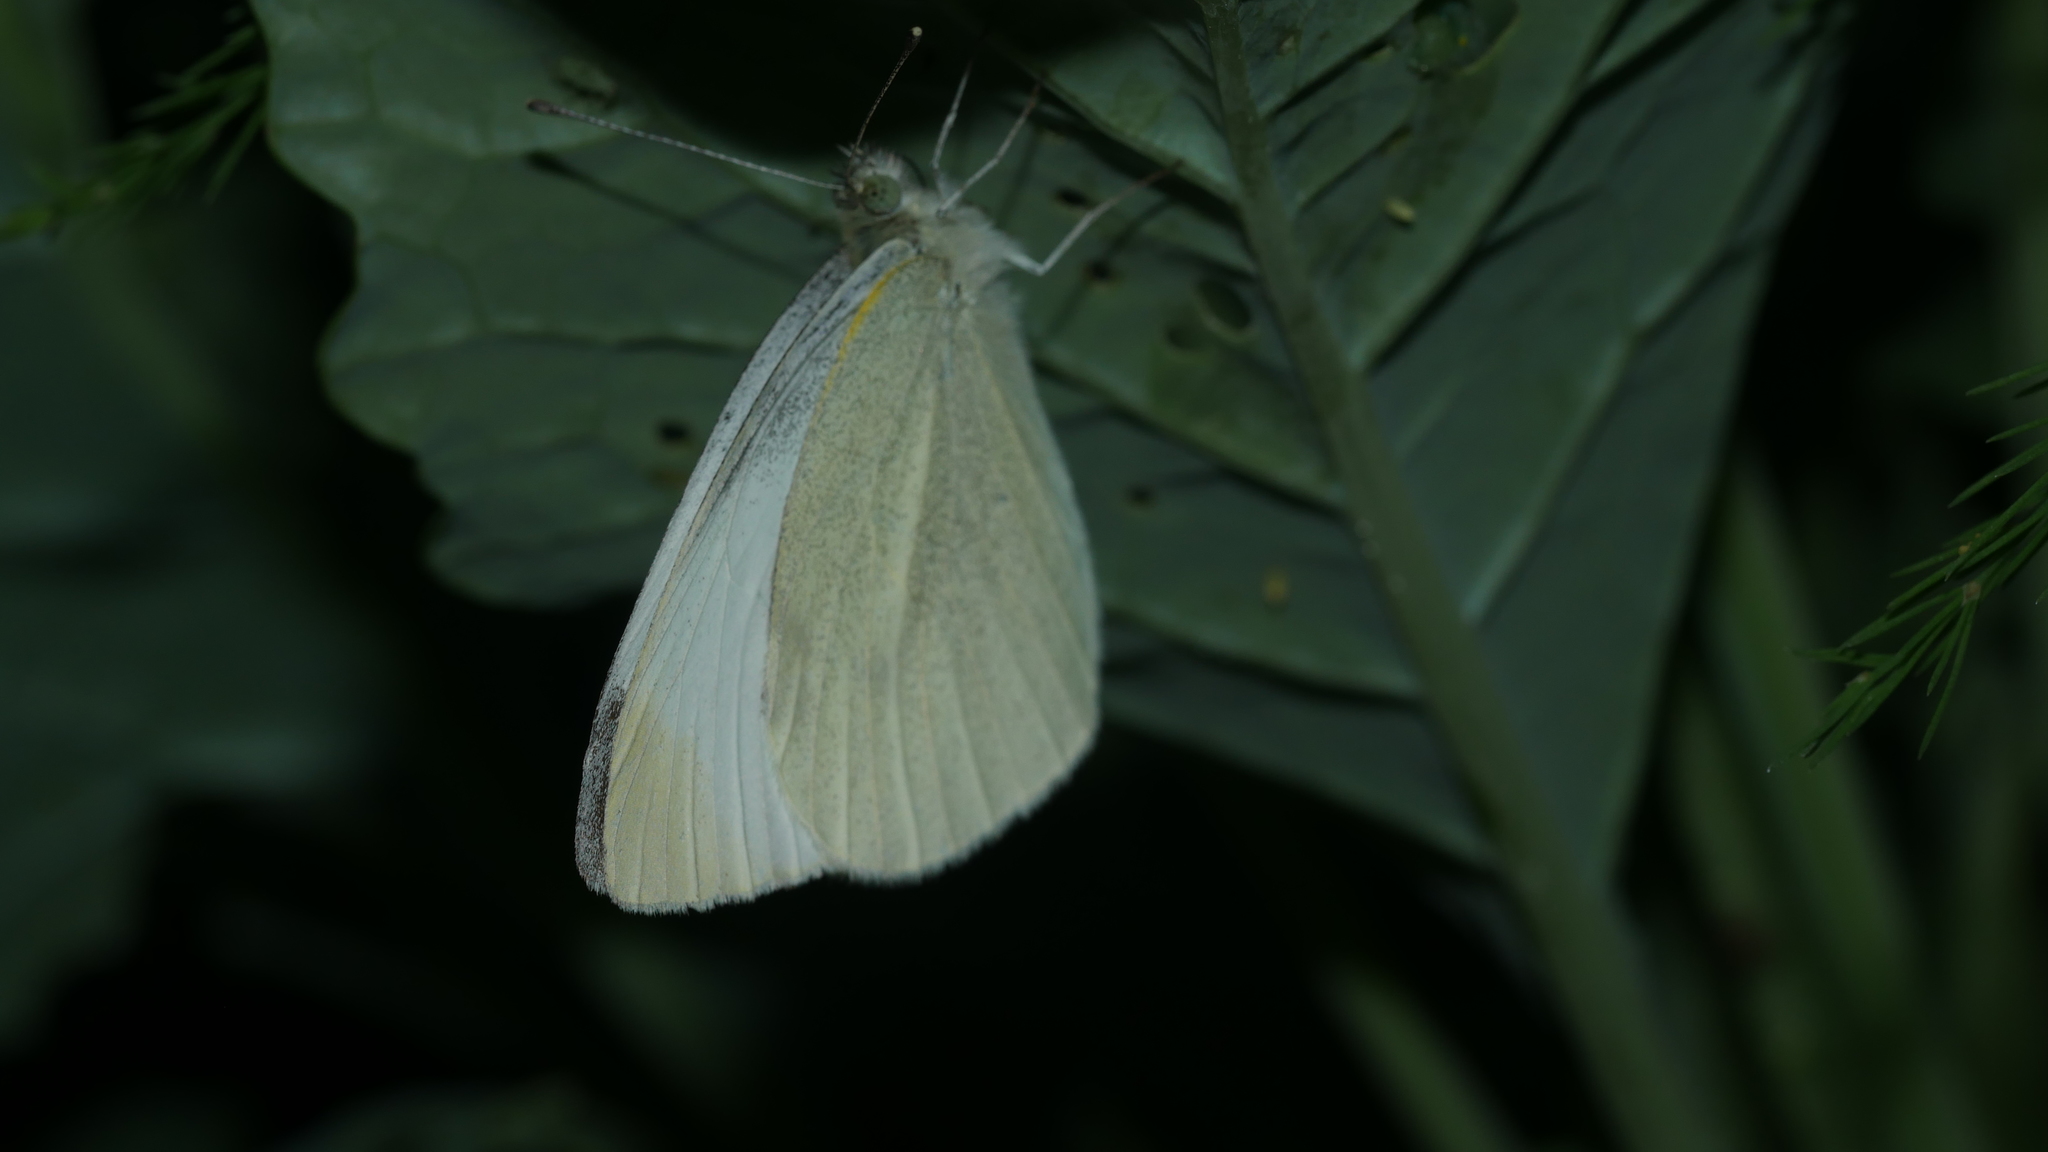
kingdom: Animalia
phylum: Arthropoda
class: Insecta
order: Lepidoptera
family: Pieridae
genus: Pieris
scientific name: Pieris rapae
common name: Small white
